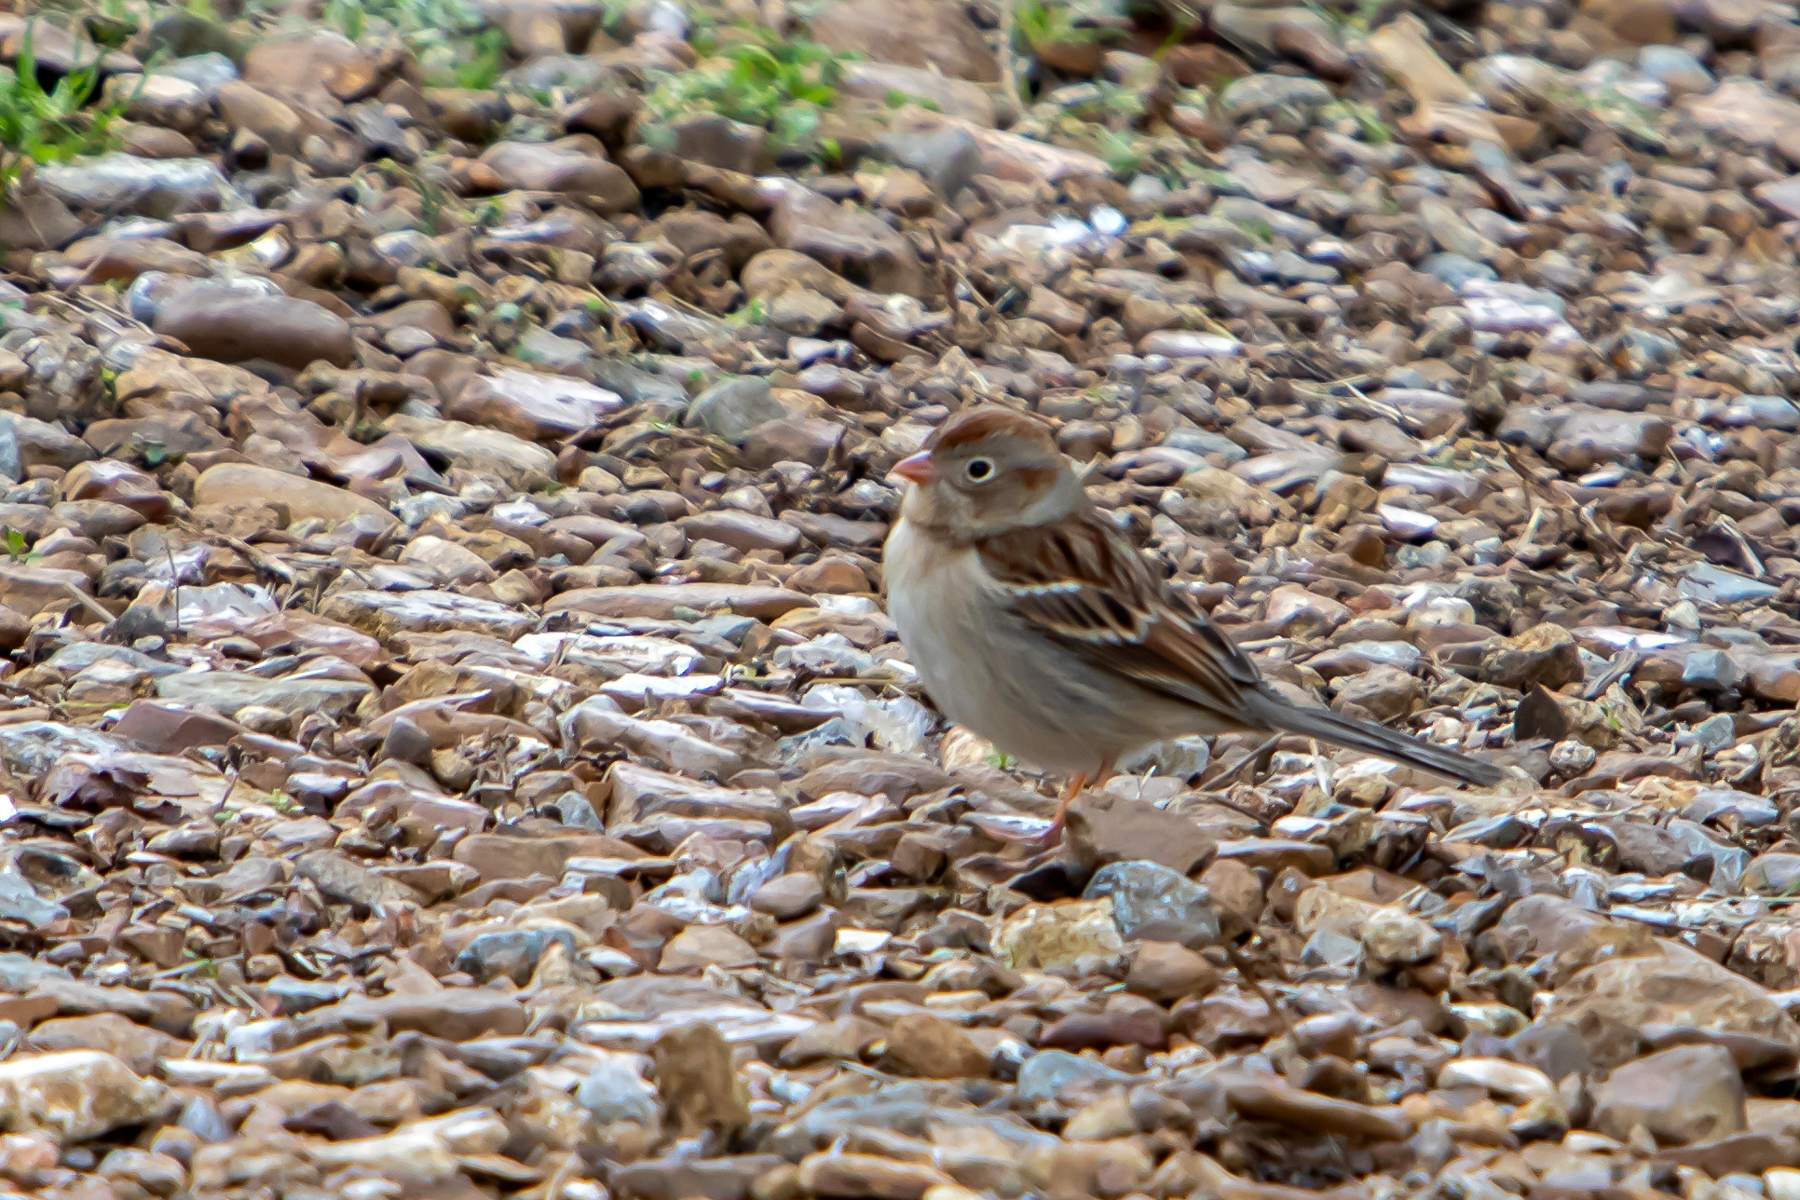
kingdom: Animalia
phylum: Chordata
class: Aves
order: Passeriformes
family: Passerellidae
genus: Spizella
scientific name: Spizella pusilla
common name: Field sparrow
